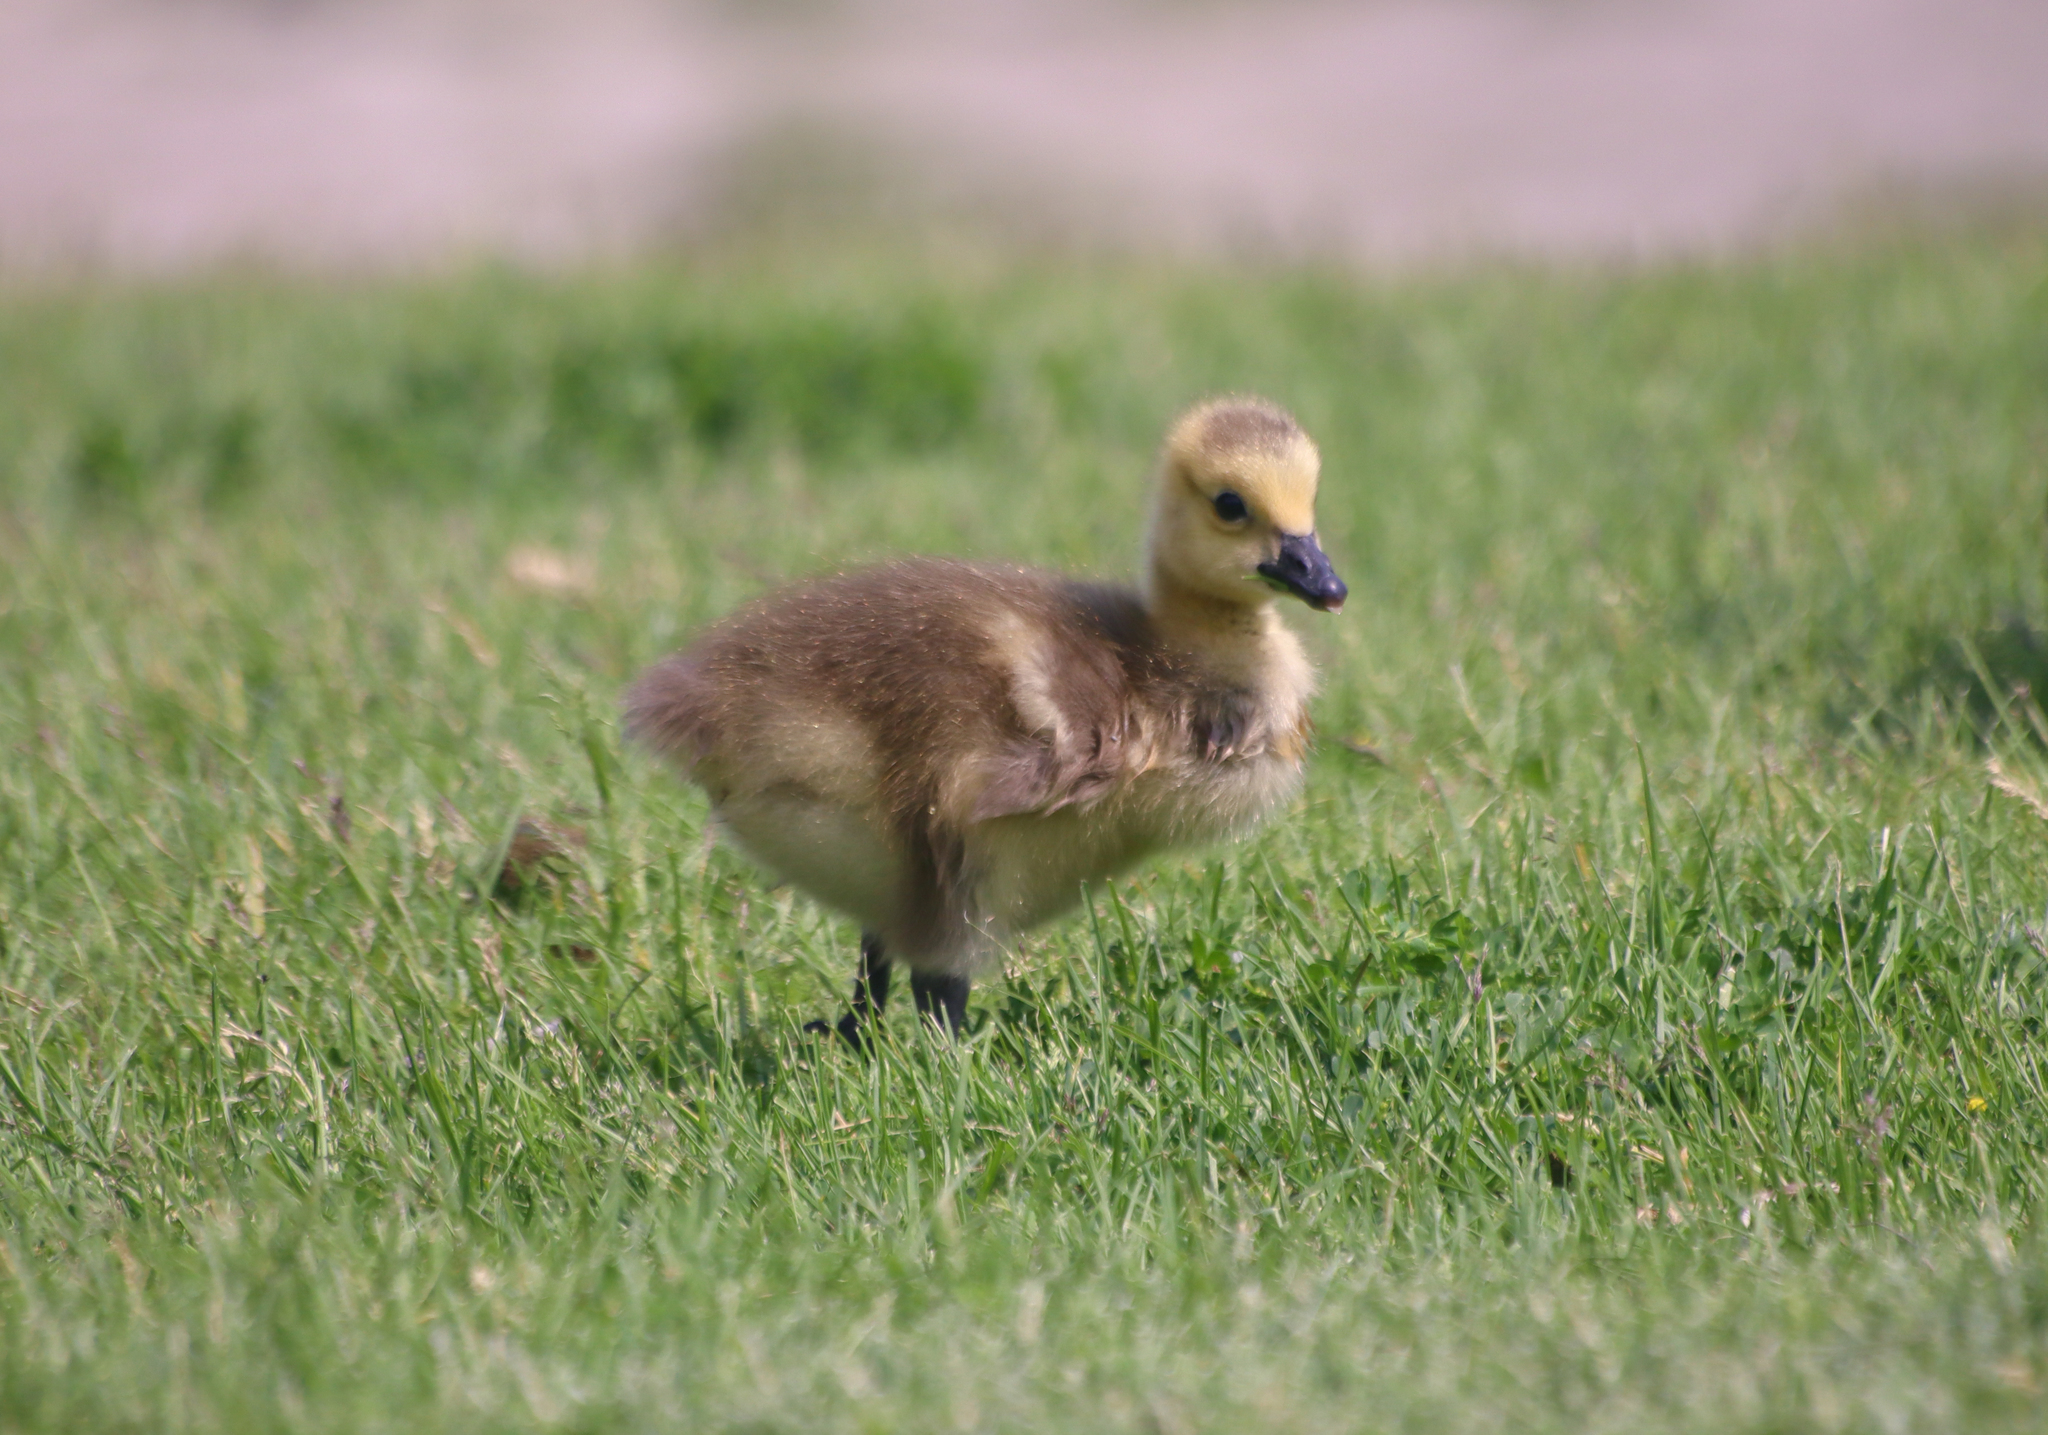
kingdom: Animalia
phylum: Chordata
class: Aves
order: Anseriformes
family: Anatidae
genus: Branta
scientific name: Branta canadensis
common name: Canada goose
